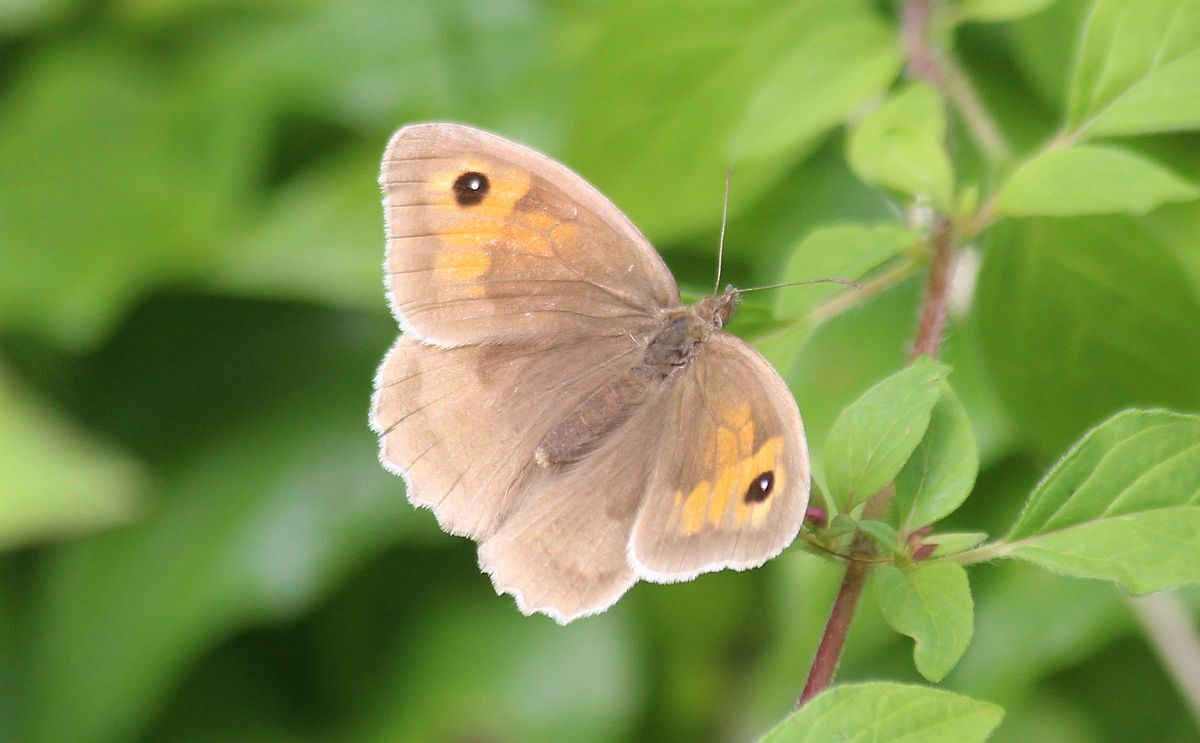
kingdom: Animalia
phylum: Arthropoda
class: Insecta
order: Lepidoptera
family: Nymphalidae
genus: Maniola
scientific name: Maniola jurtina
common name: Meadow brown
